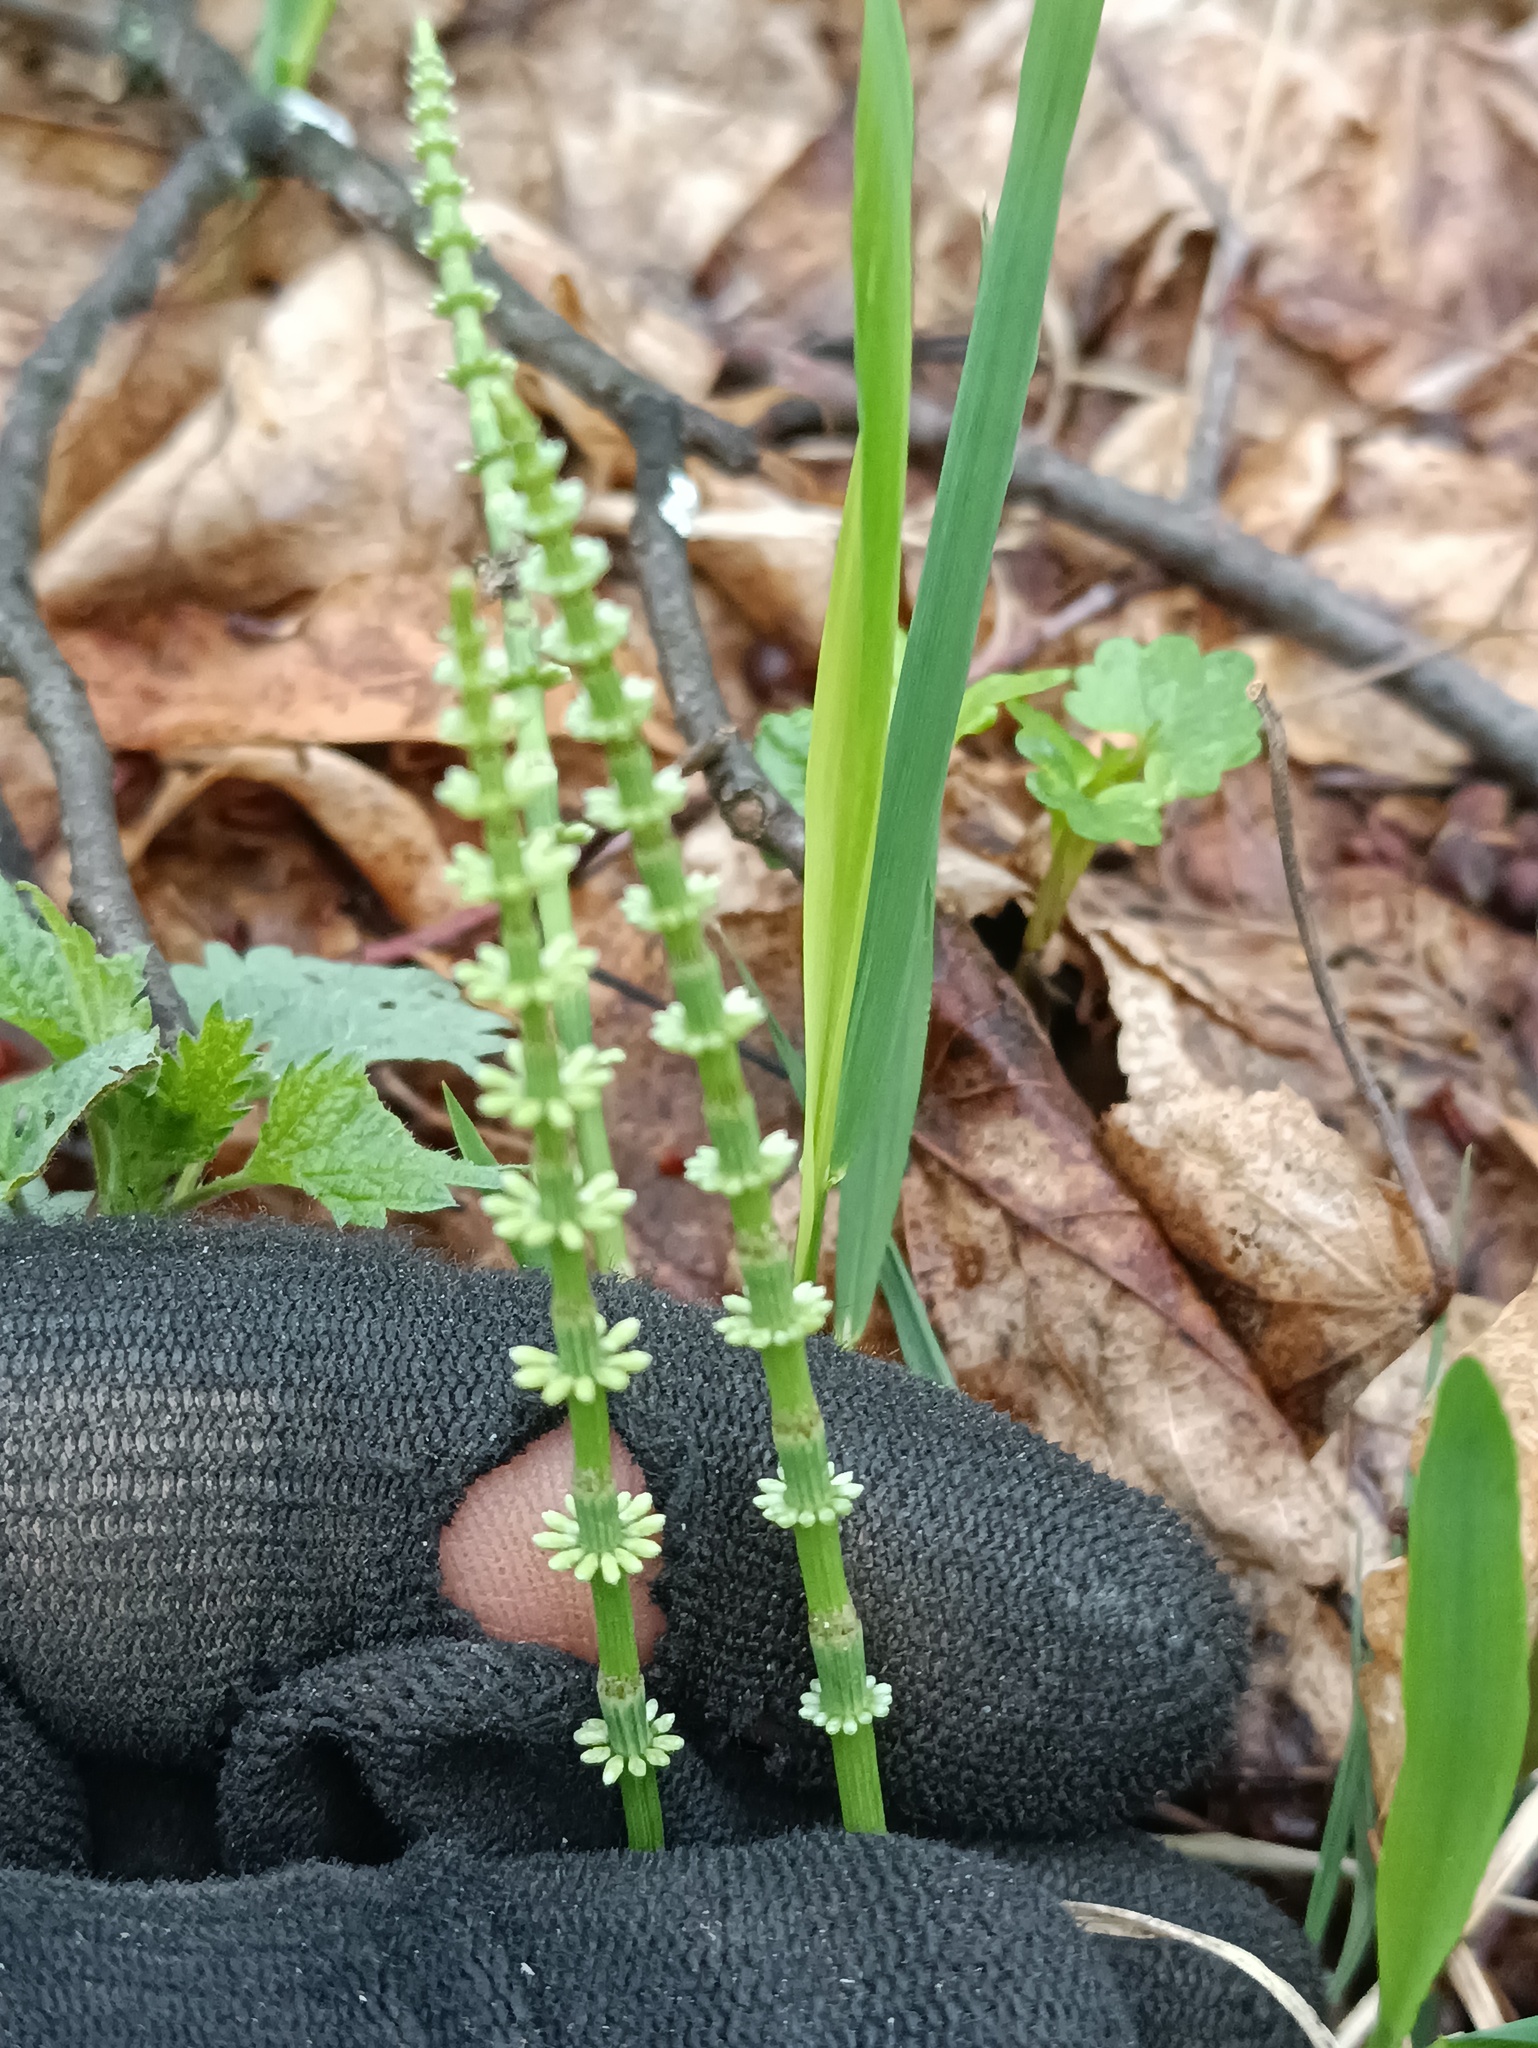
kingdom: Plantae
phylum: Tracheophyta
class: Polypodiopsida
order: Equisetales
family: Equisetaceae
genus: Equisetum
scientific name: Equisetum pratense
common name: Meadow horsetail
